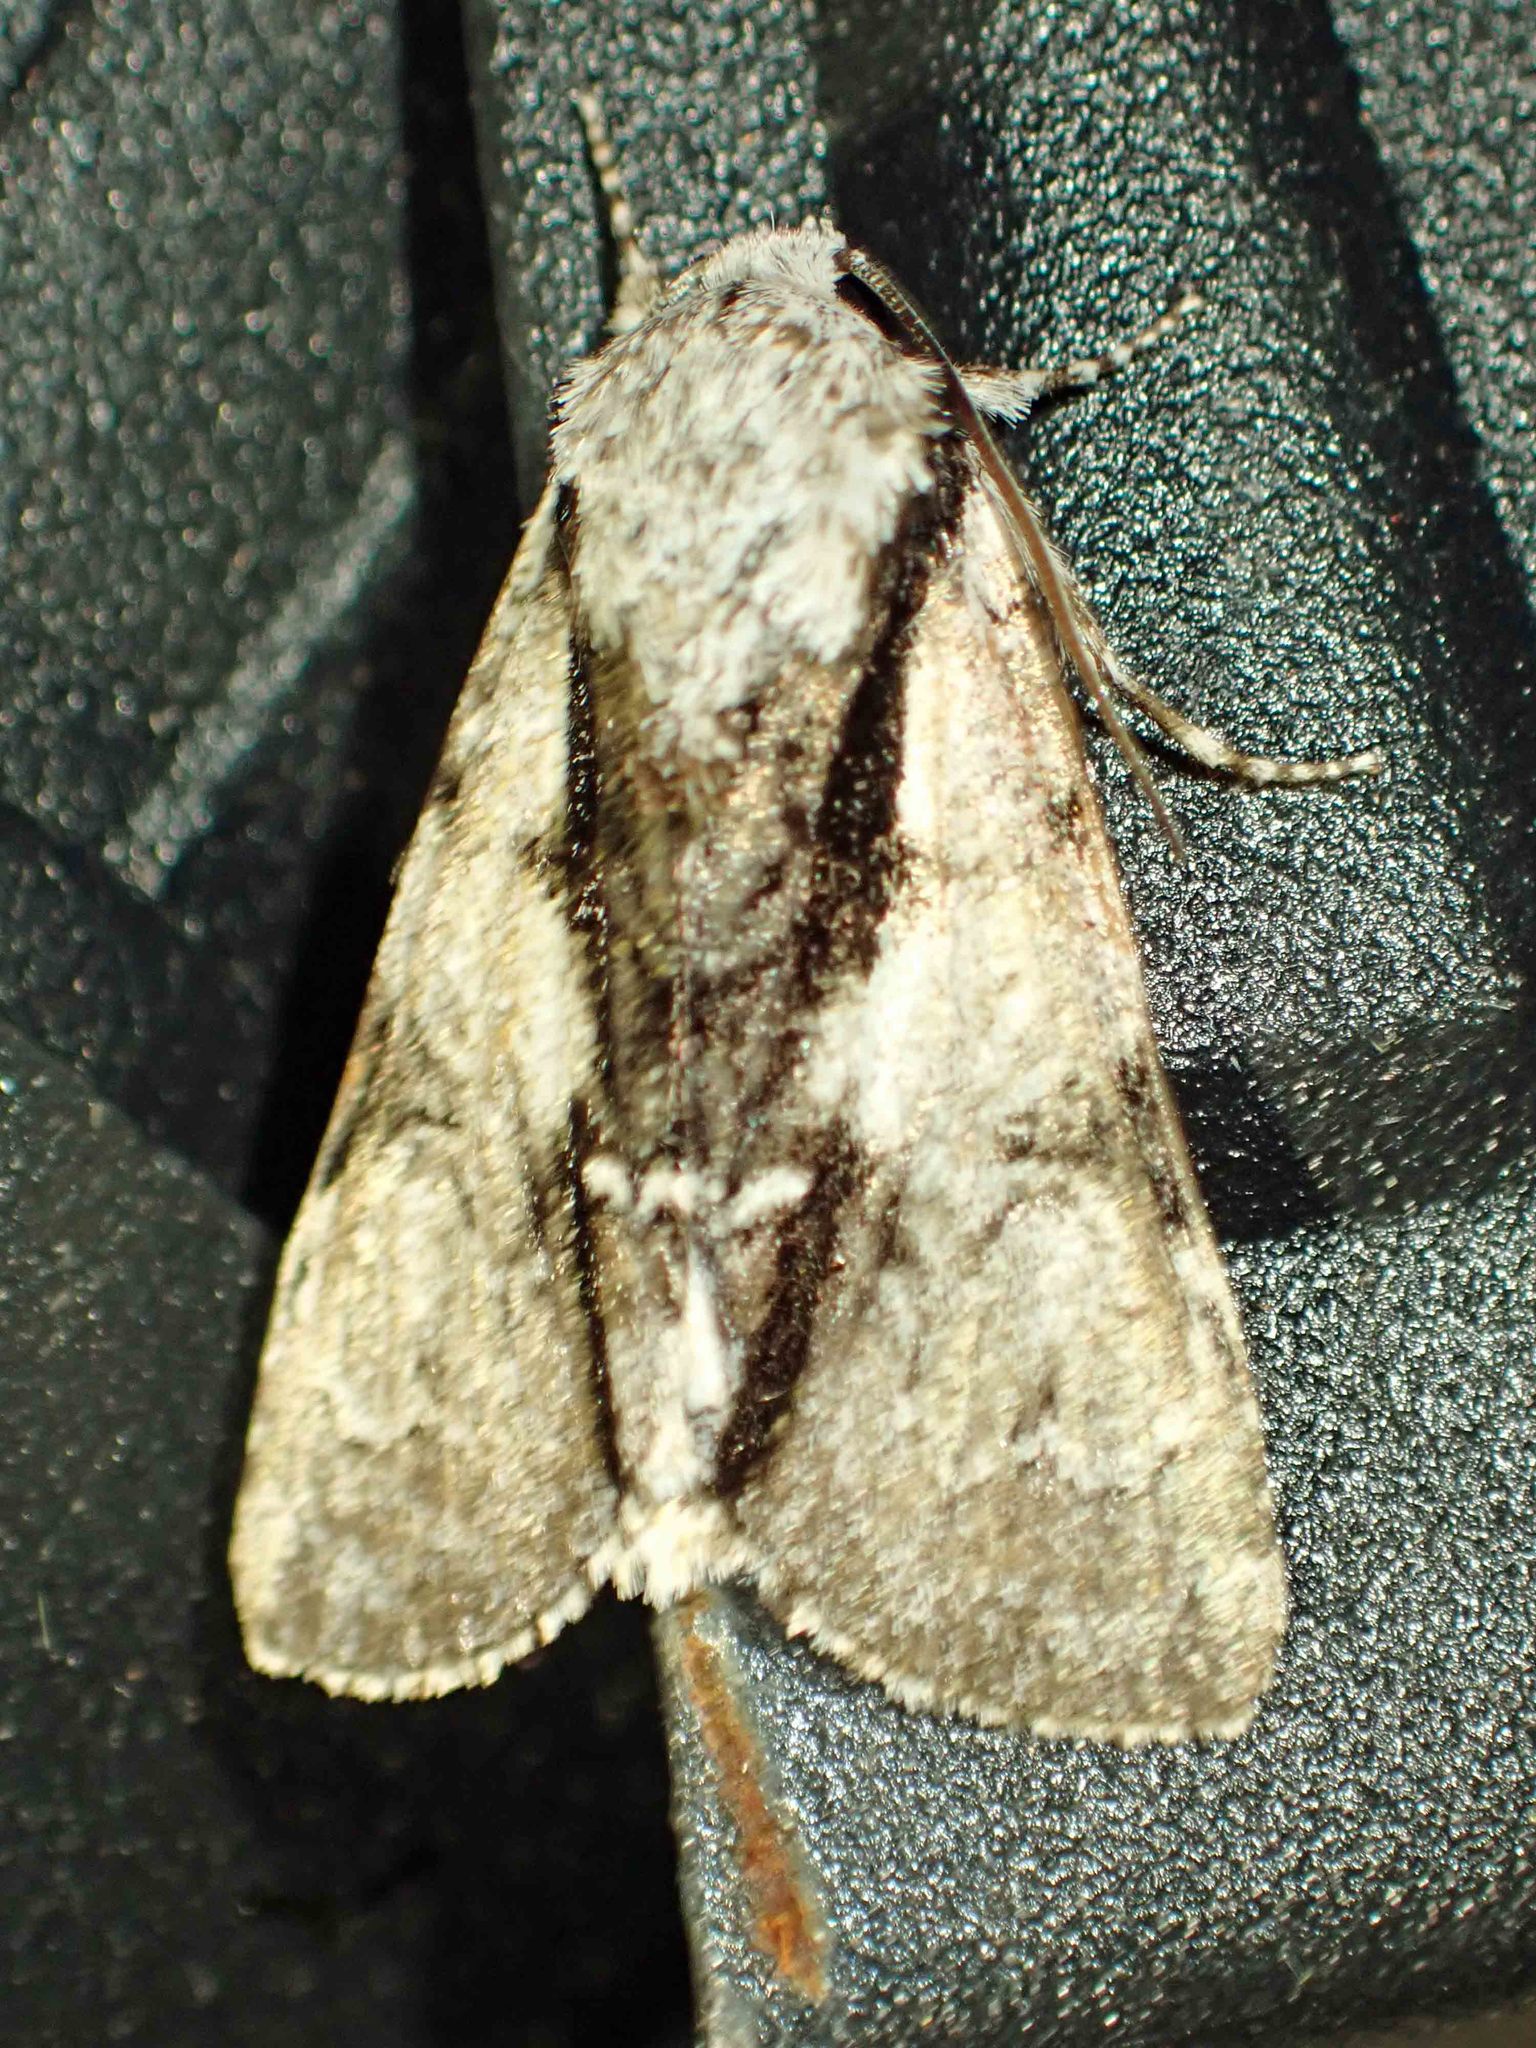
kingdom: Animalia
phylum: Arthropoda
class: Insecta
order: Lepidoptera
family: Noctuidae
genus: Acronicta
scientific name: Acronicta funeralis
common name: Funerary dagger
